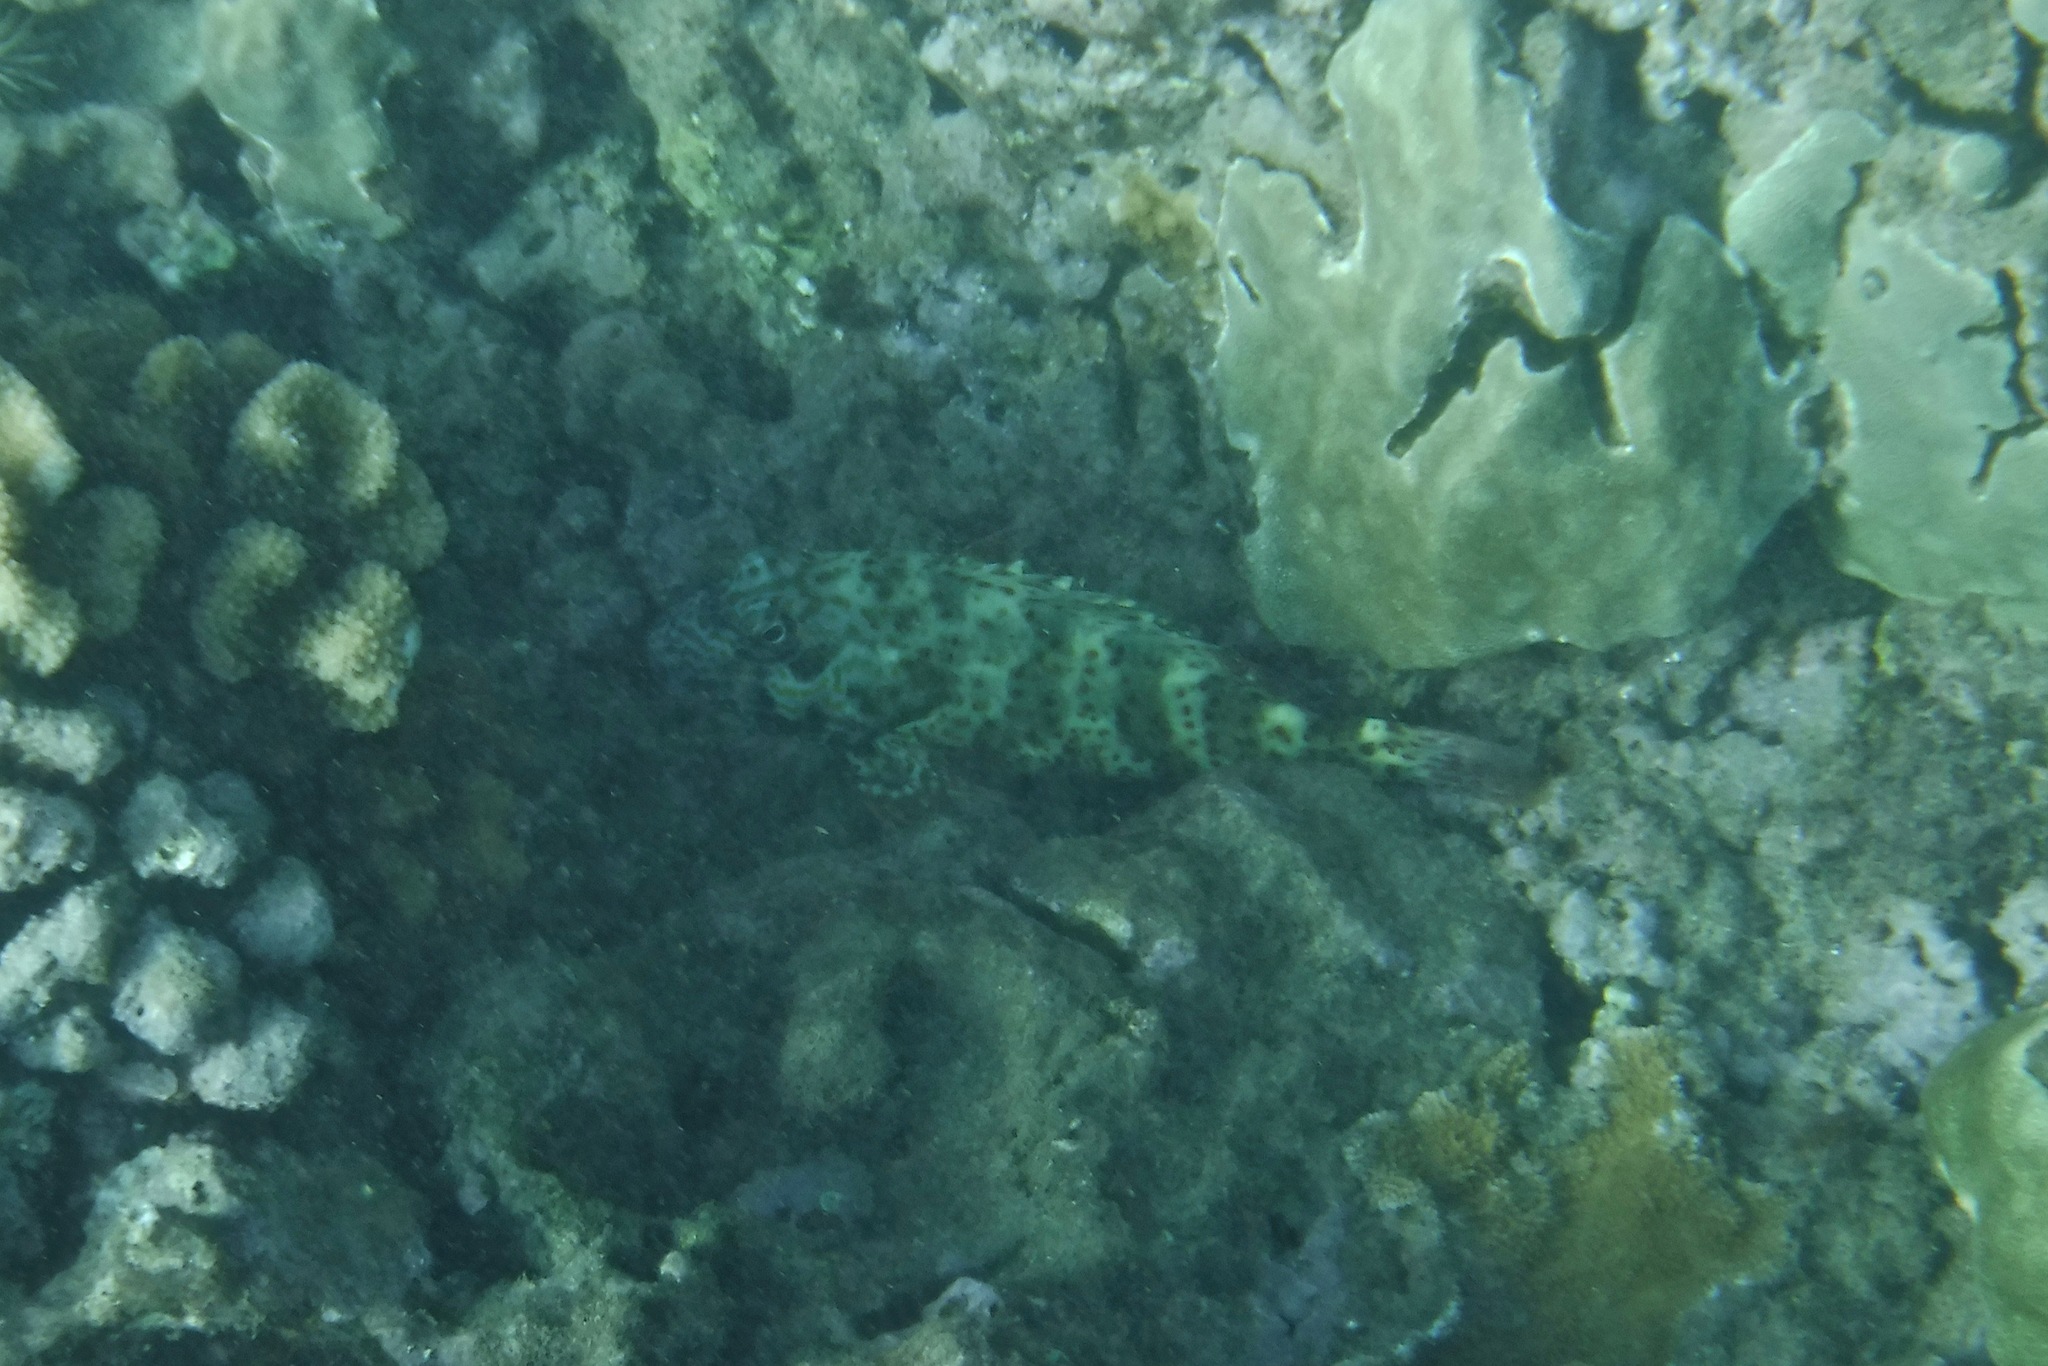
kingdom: Animalia
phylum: Chordata
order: Perciformes
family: Cirrhitidae
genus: Cirrhitus
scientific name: Cirrhitus pinnulatus
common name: Stocky hawkfish
